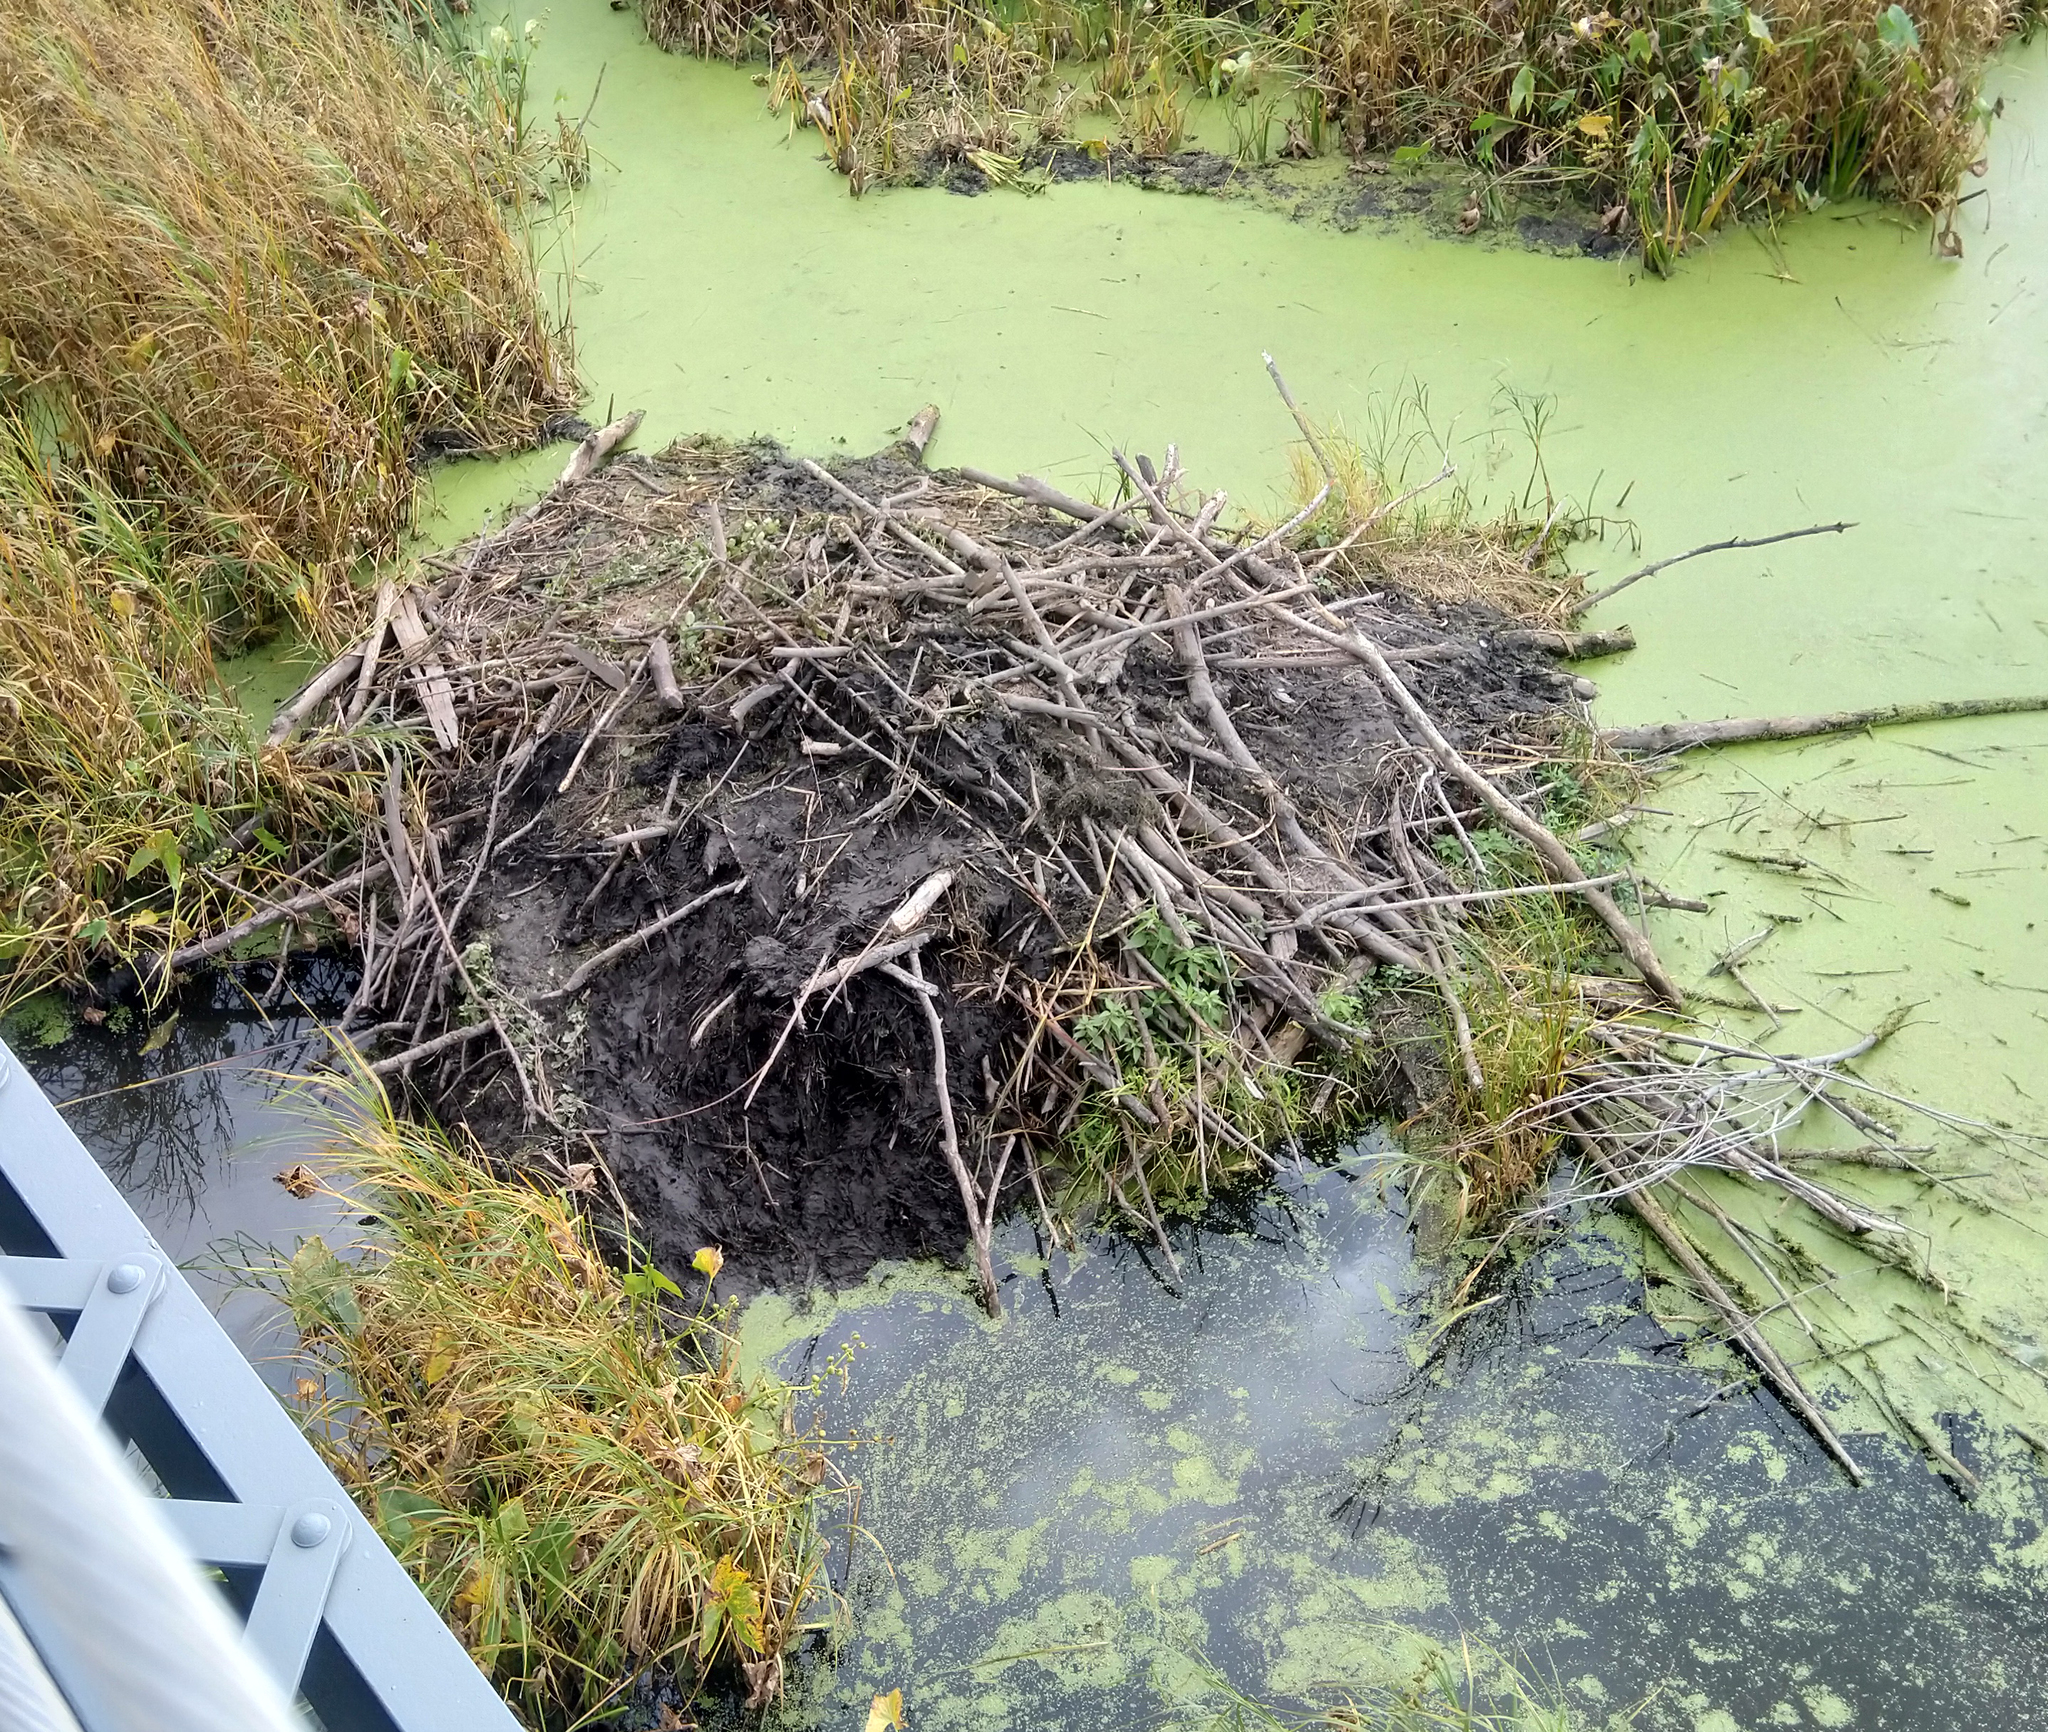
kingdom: Animalia
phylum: Chordata
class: Mammalia
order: Rodentia
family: Castoridae
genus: Castor
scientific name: Castor canadensis
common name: American beaver
